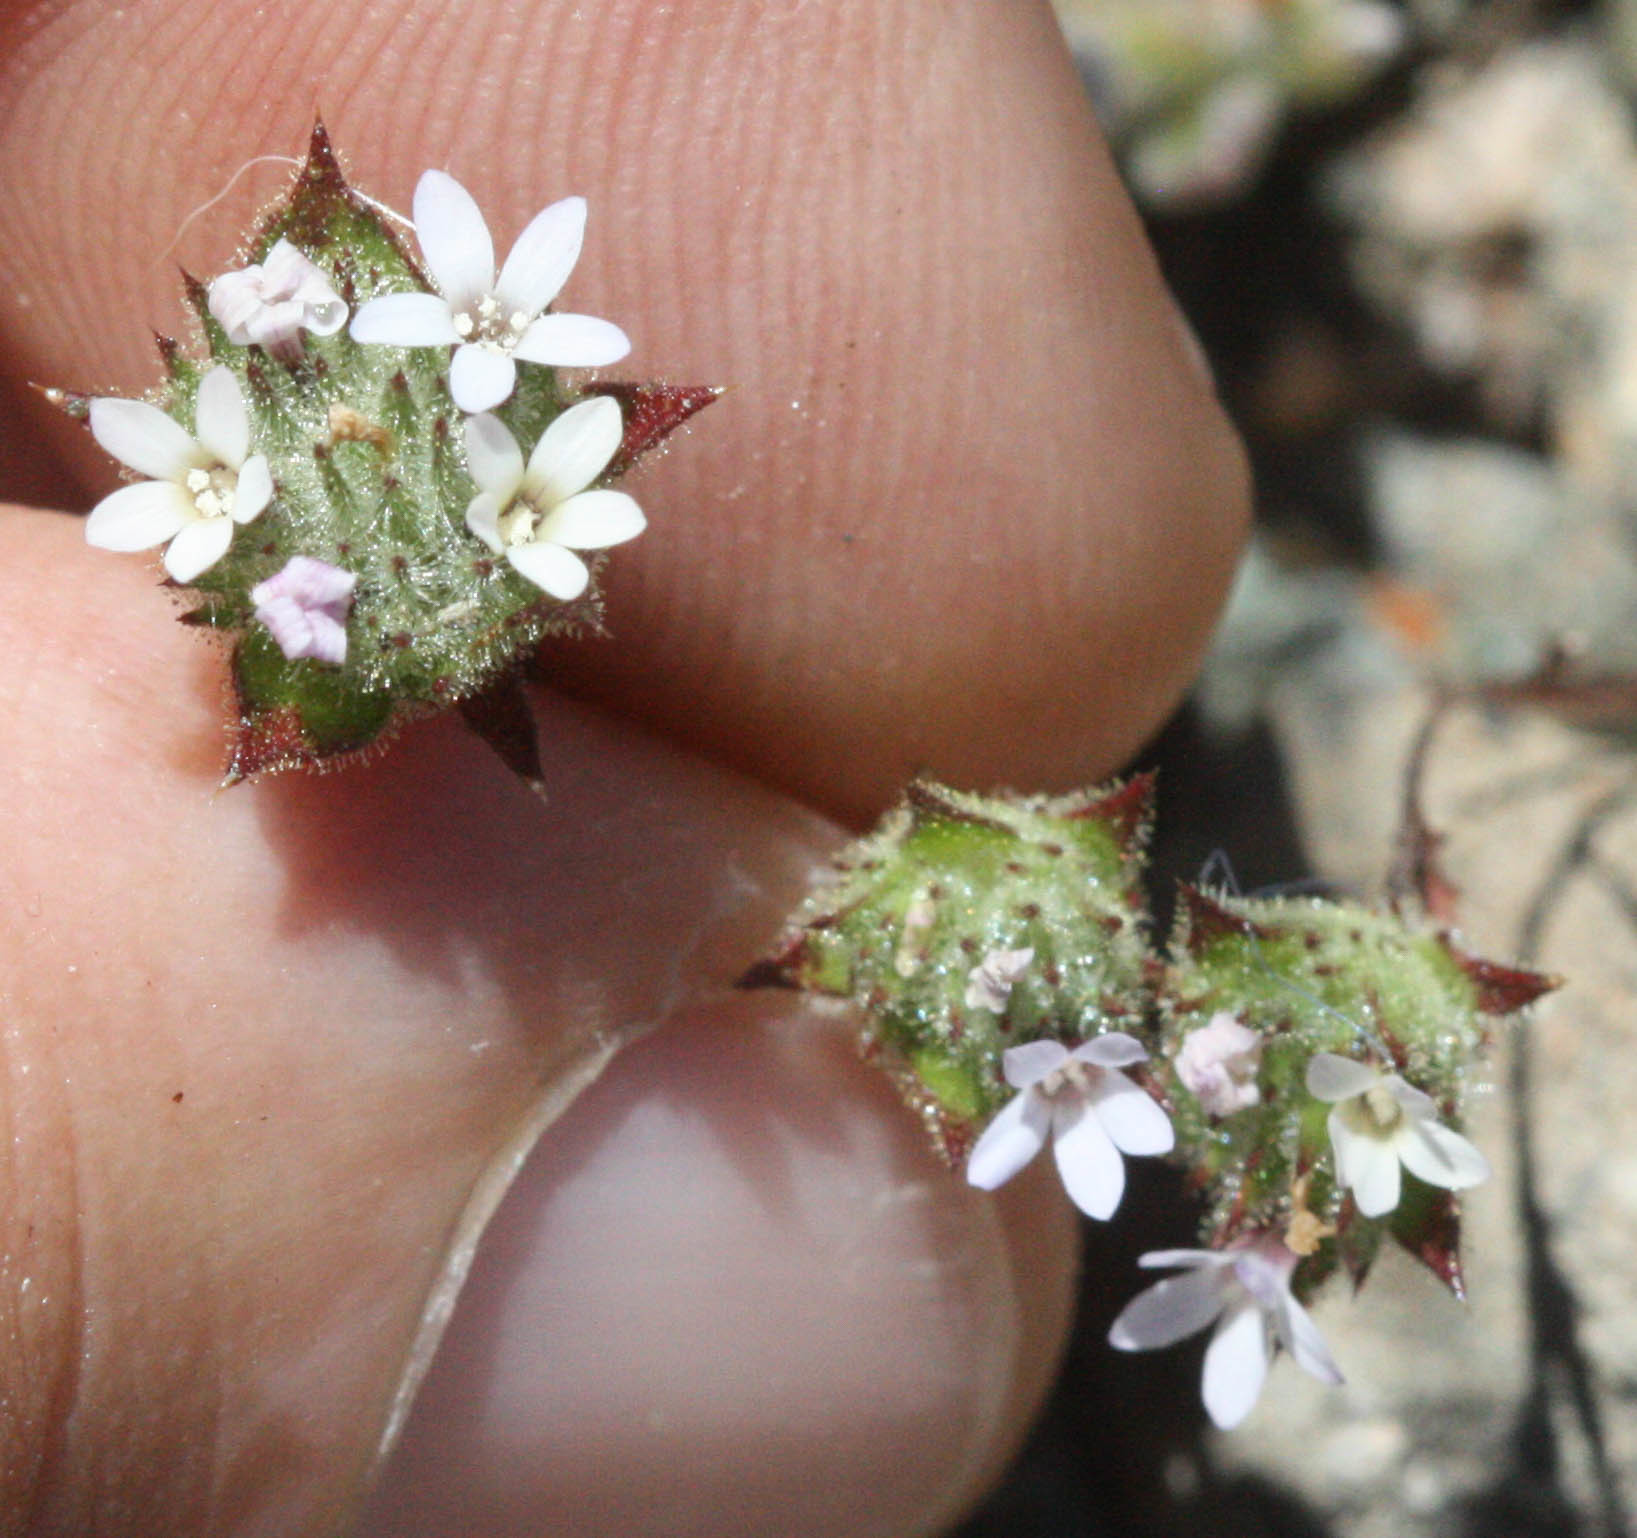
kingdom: Plantae
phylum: Tracheophyta
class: Magnoliopsida
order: Ericales
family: Polemoniaceae
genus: Navarretia
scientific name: Navarretia rosulata
